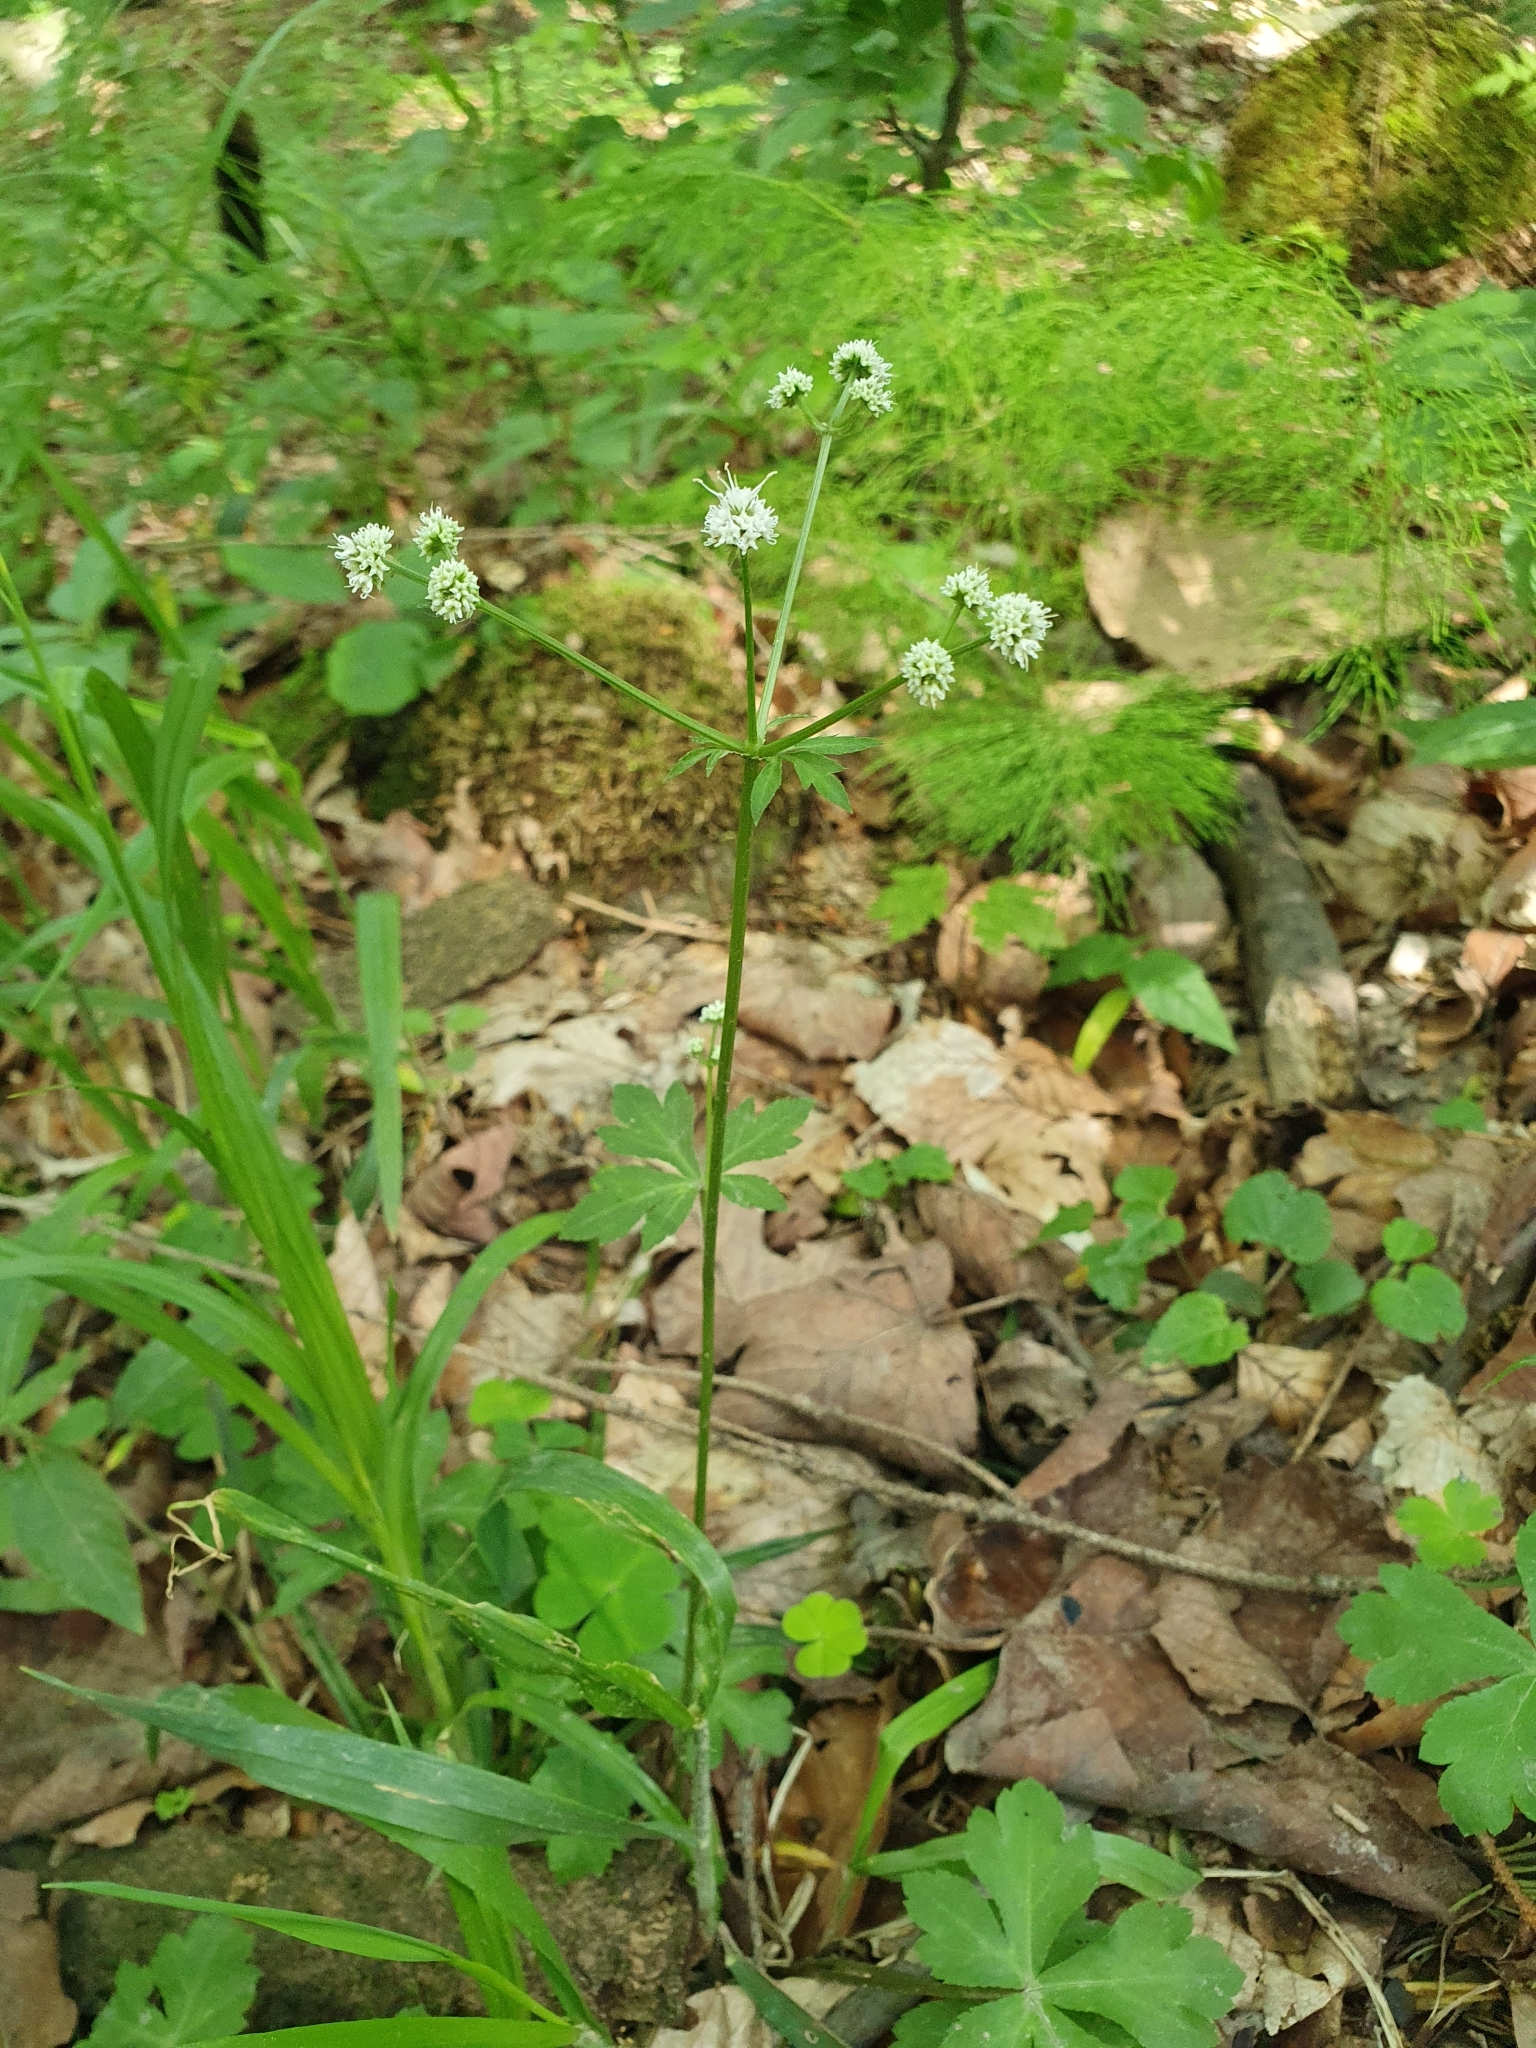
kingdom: Plantae
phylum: Tracheophyta
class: Magnoliopsida
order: Apiales
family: Apiaceae
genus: Sanicula
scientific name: Sanicula europaea
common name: Sanicle
